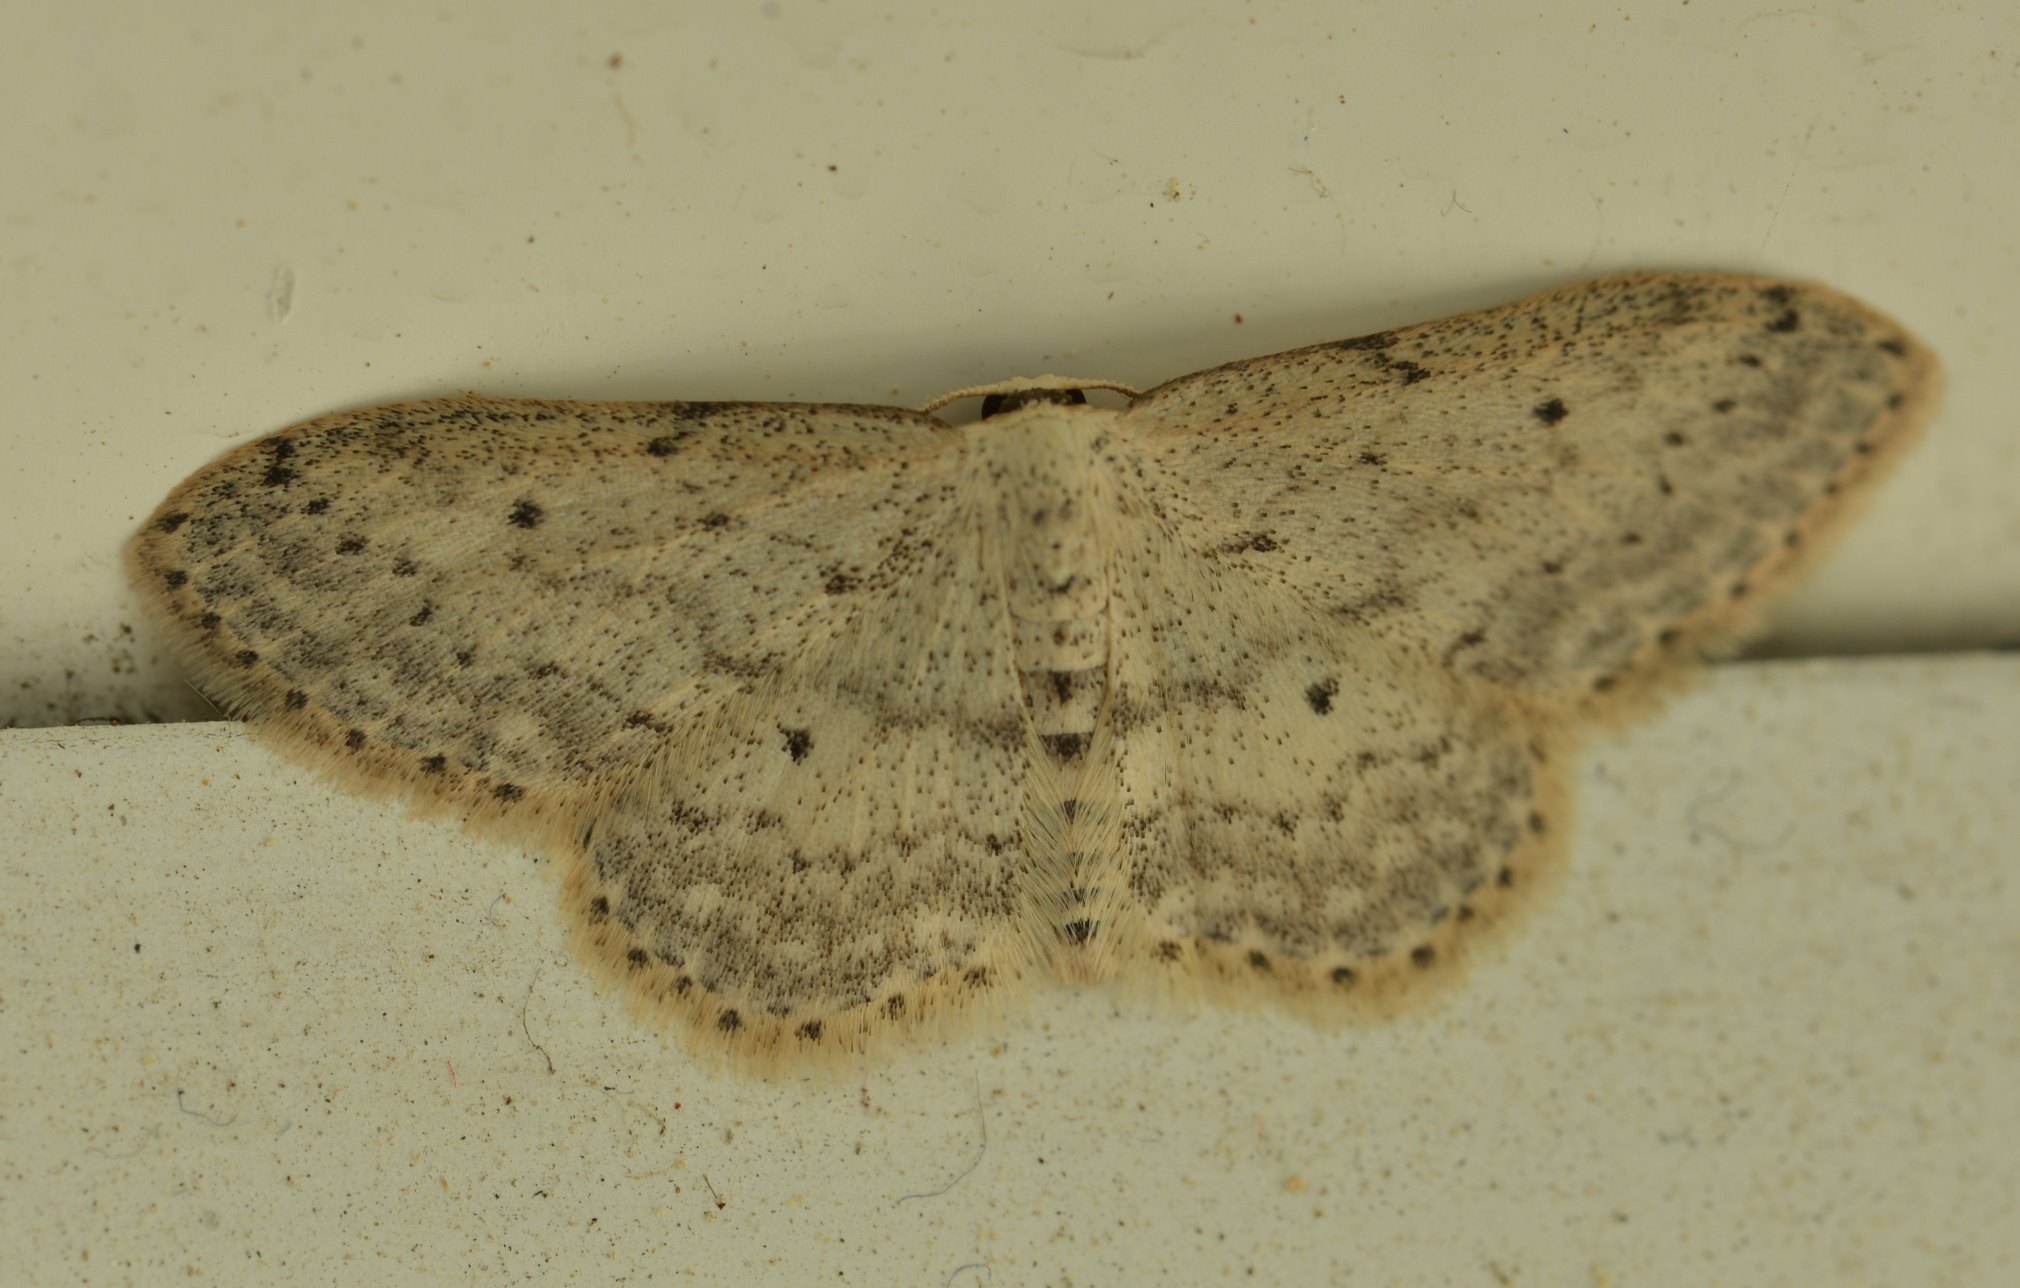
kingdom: Animalia
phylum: Arthropoda
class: Insecta
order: Lepidoptera
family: Geometridae
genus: Idaea
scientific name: Idaea seriata
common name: Small dusty wave
